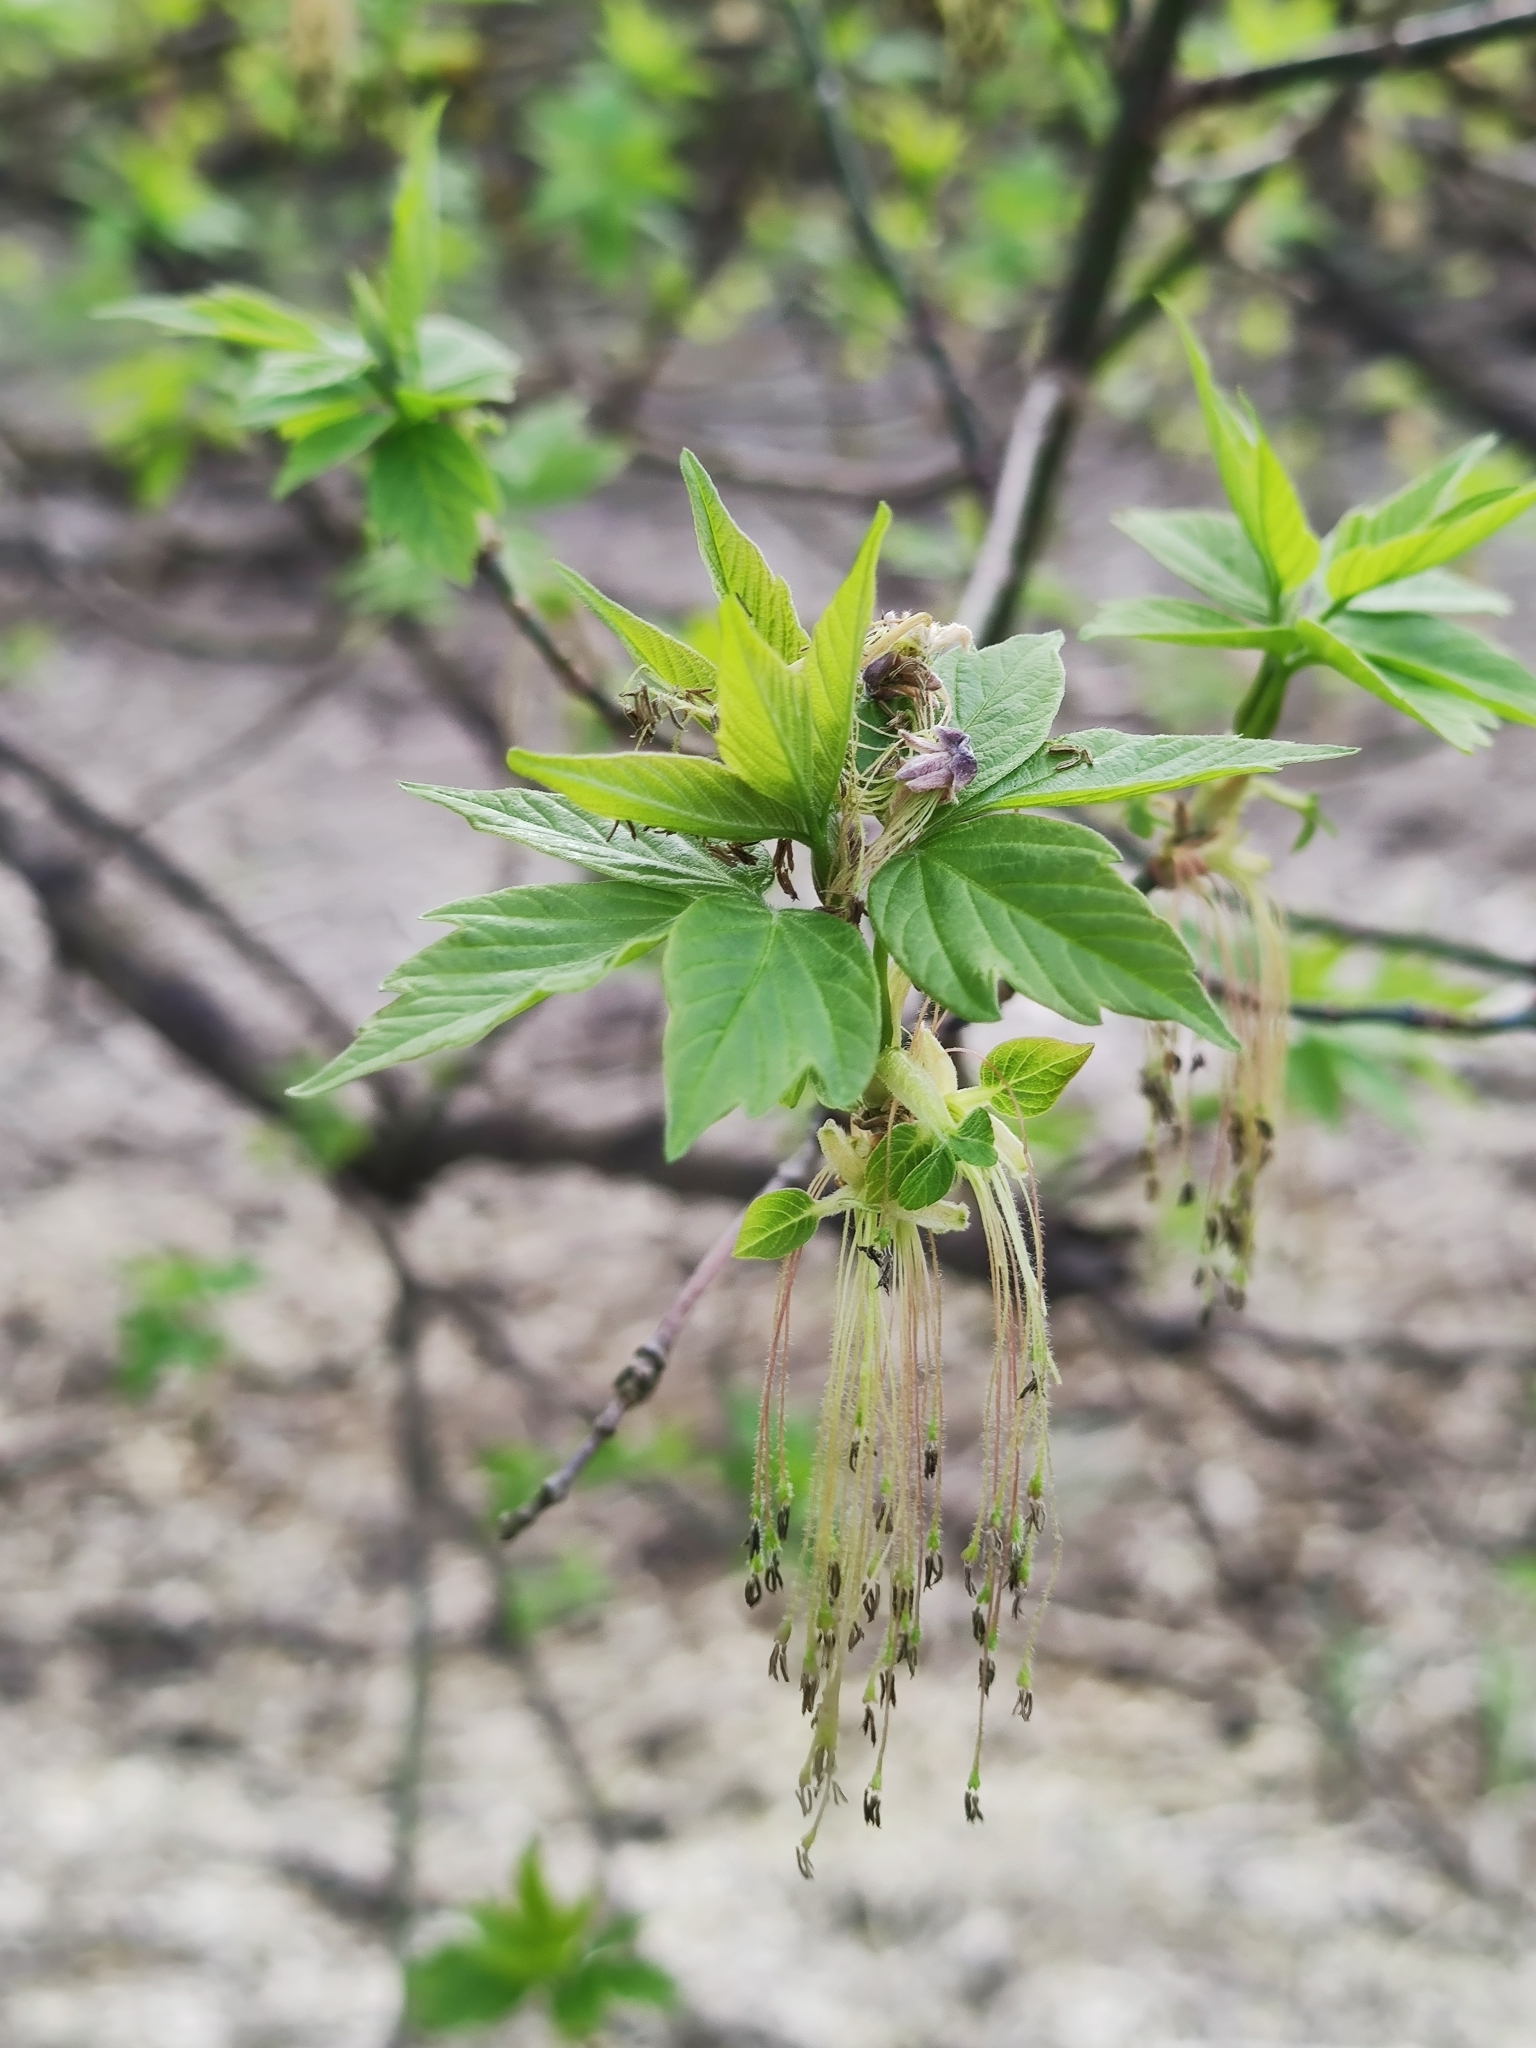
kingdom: Plantae
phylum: Tracheophyta
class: Magnoliopsida
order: Sapindales
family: Sapindaceae
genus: Acer
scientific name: Acer negundo
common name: Ashleaf maple
